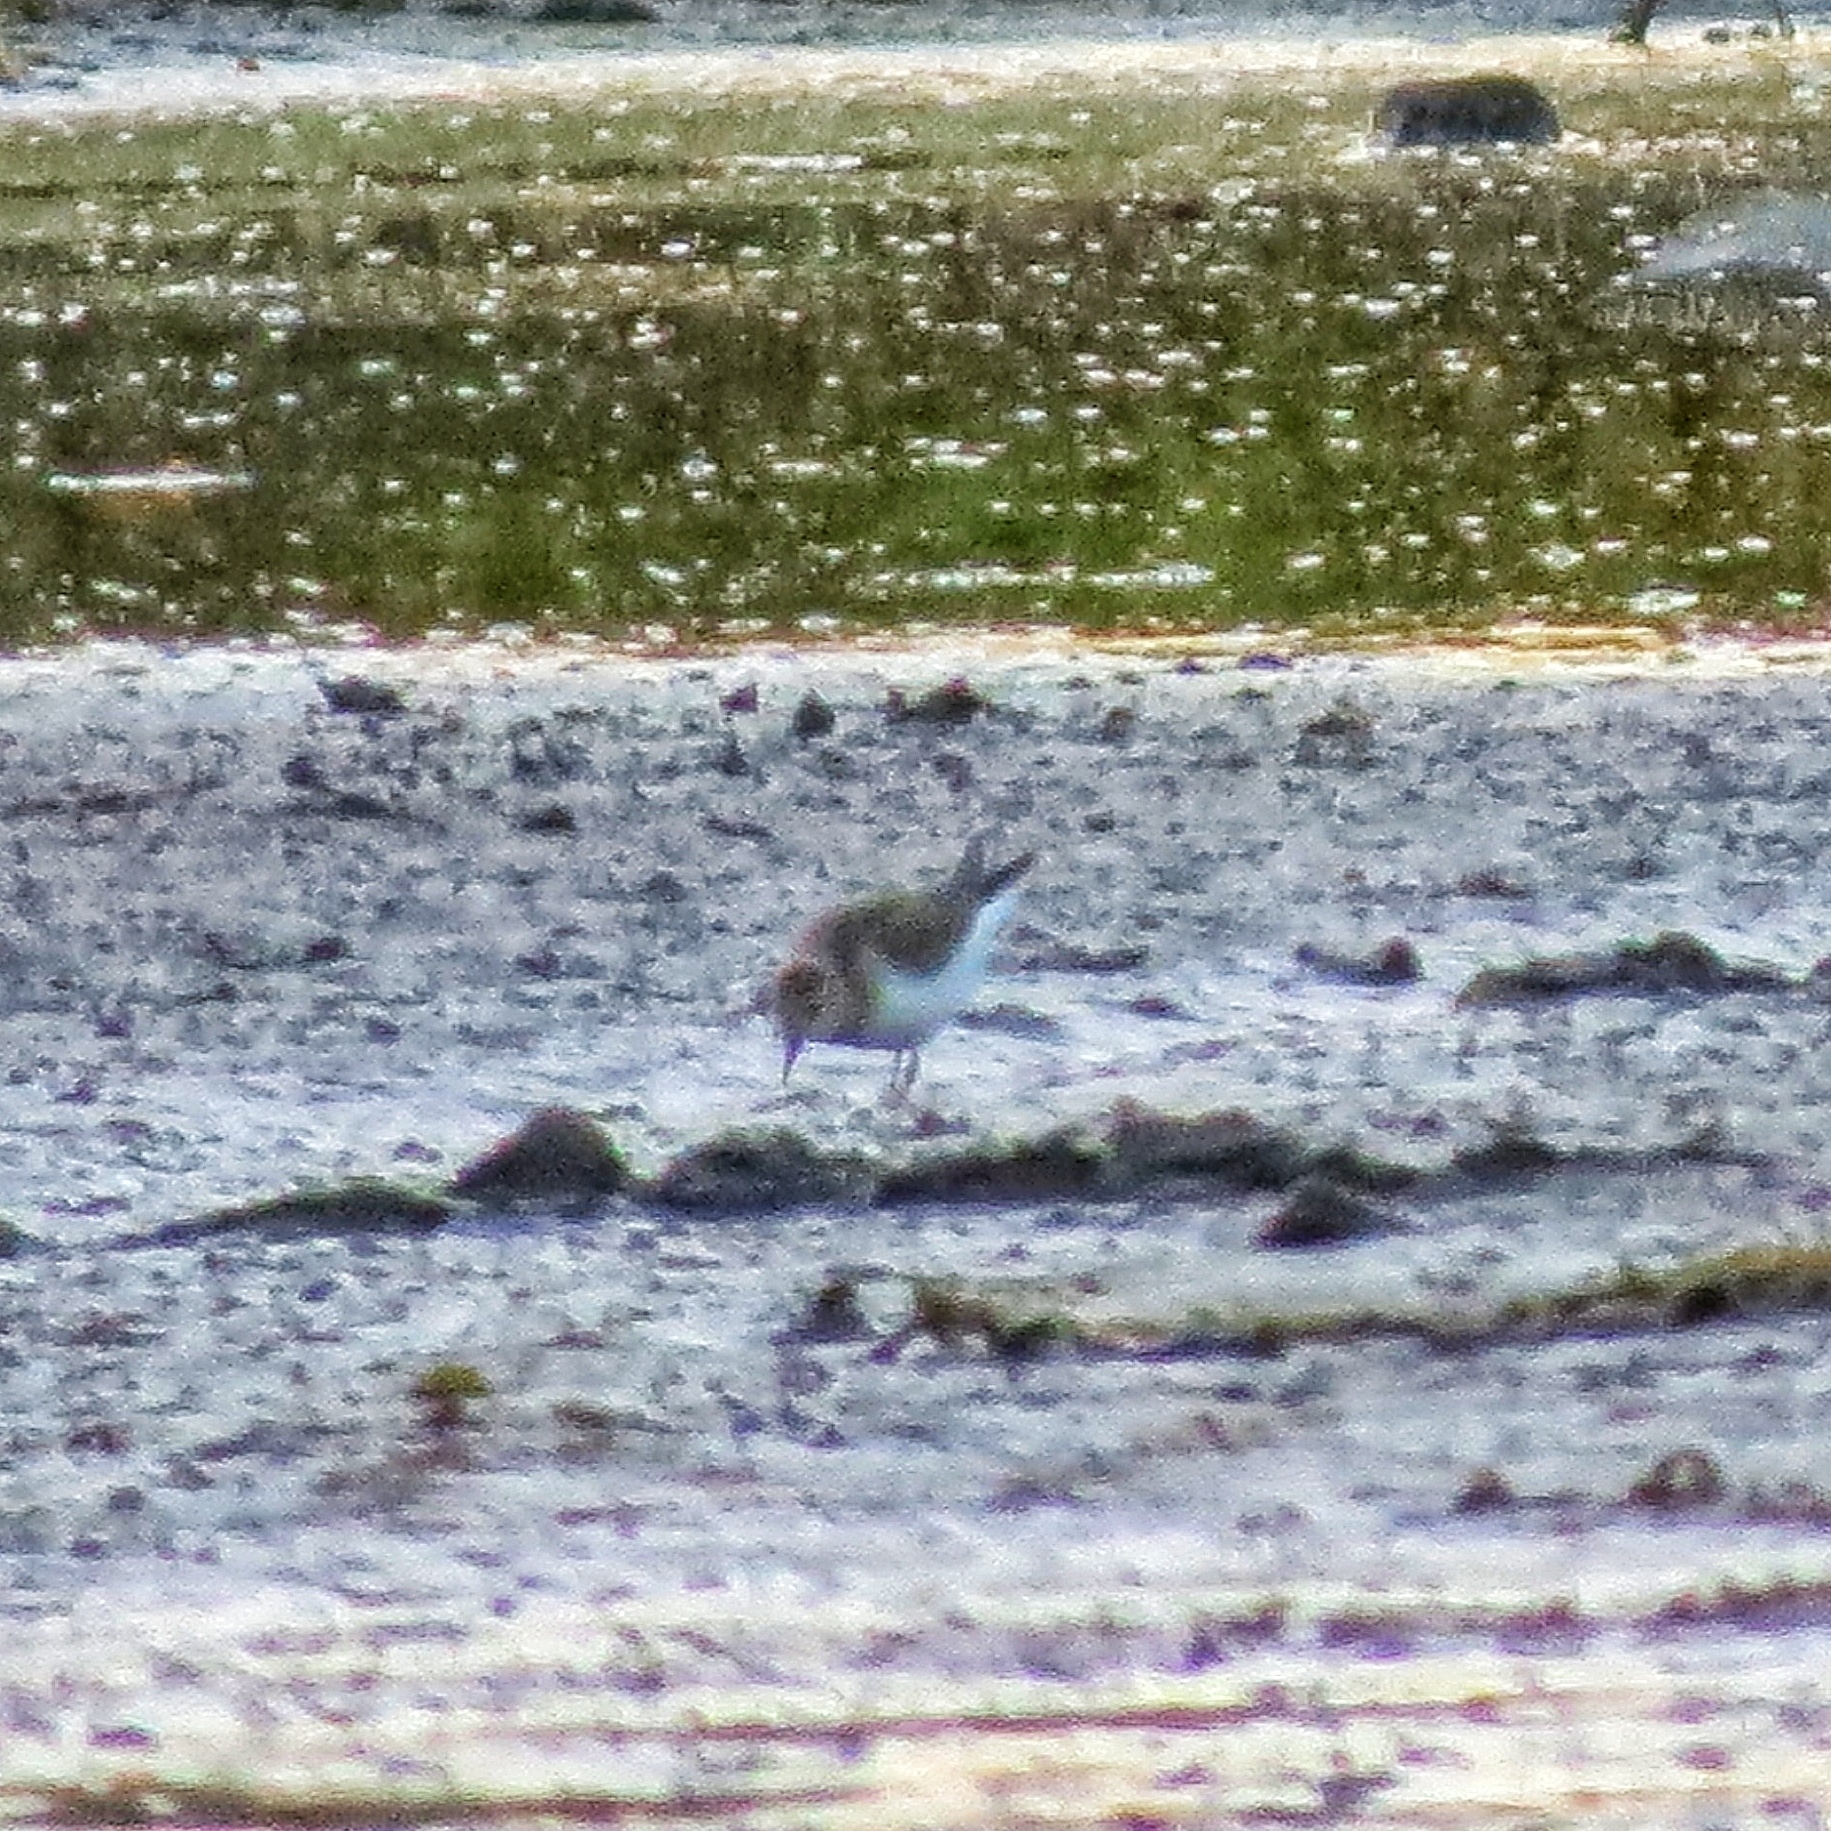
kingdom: Animalia
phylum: Chordata
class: Aves
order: Charadriiformes
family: Scolopacidae
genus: Calidris
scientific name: Calidris temminckii
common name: Temminck's stint
